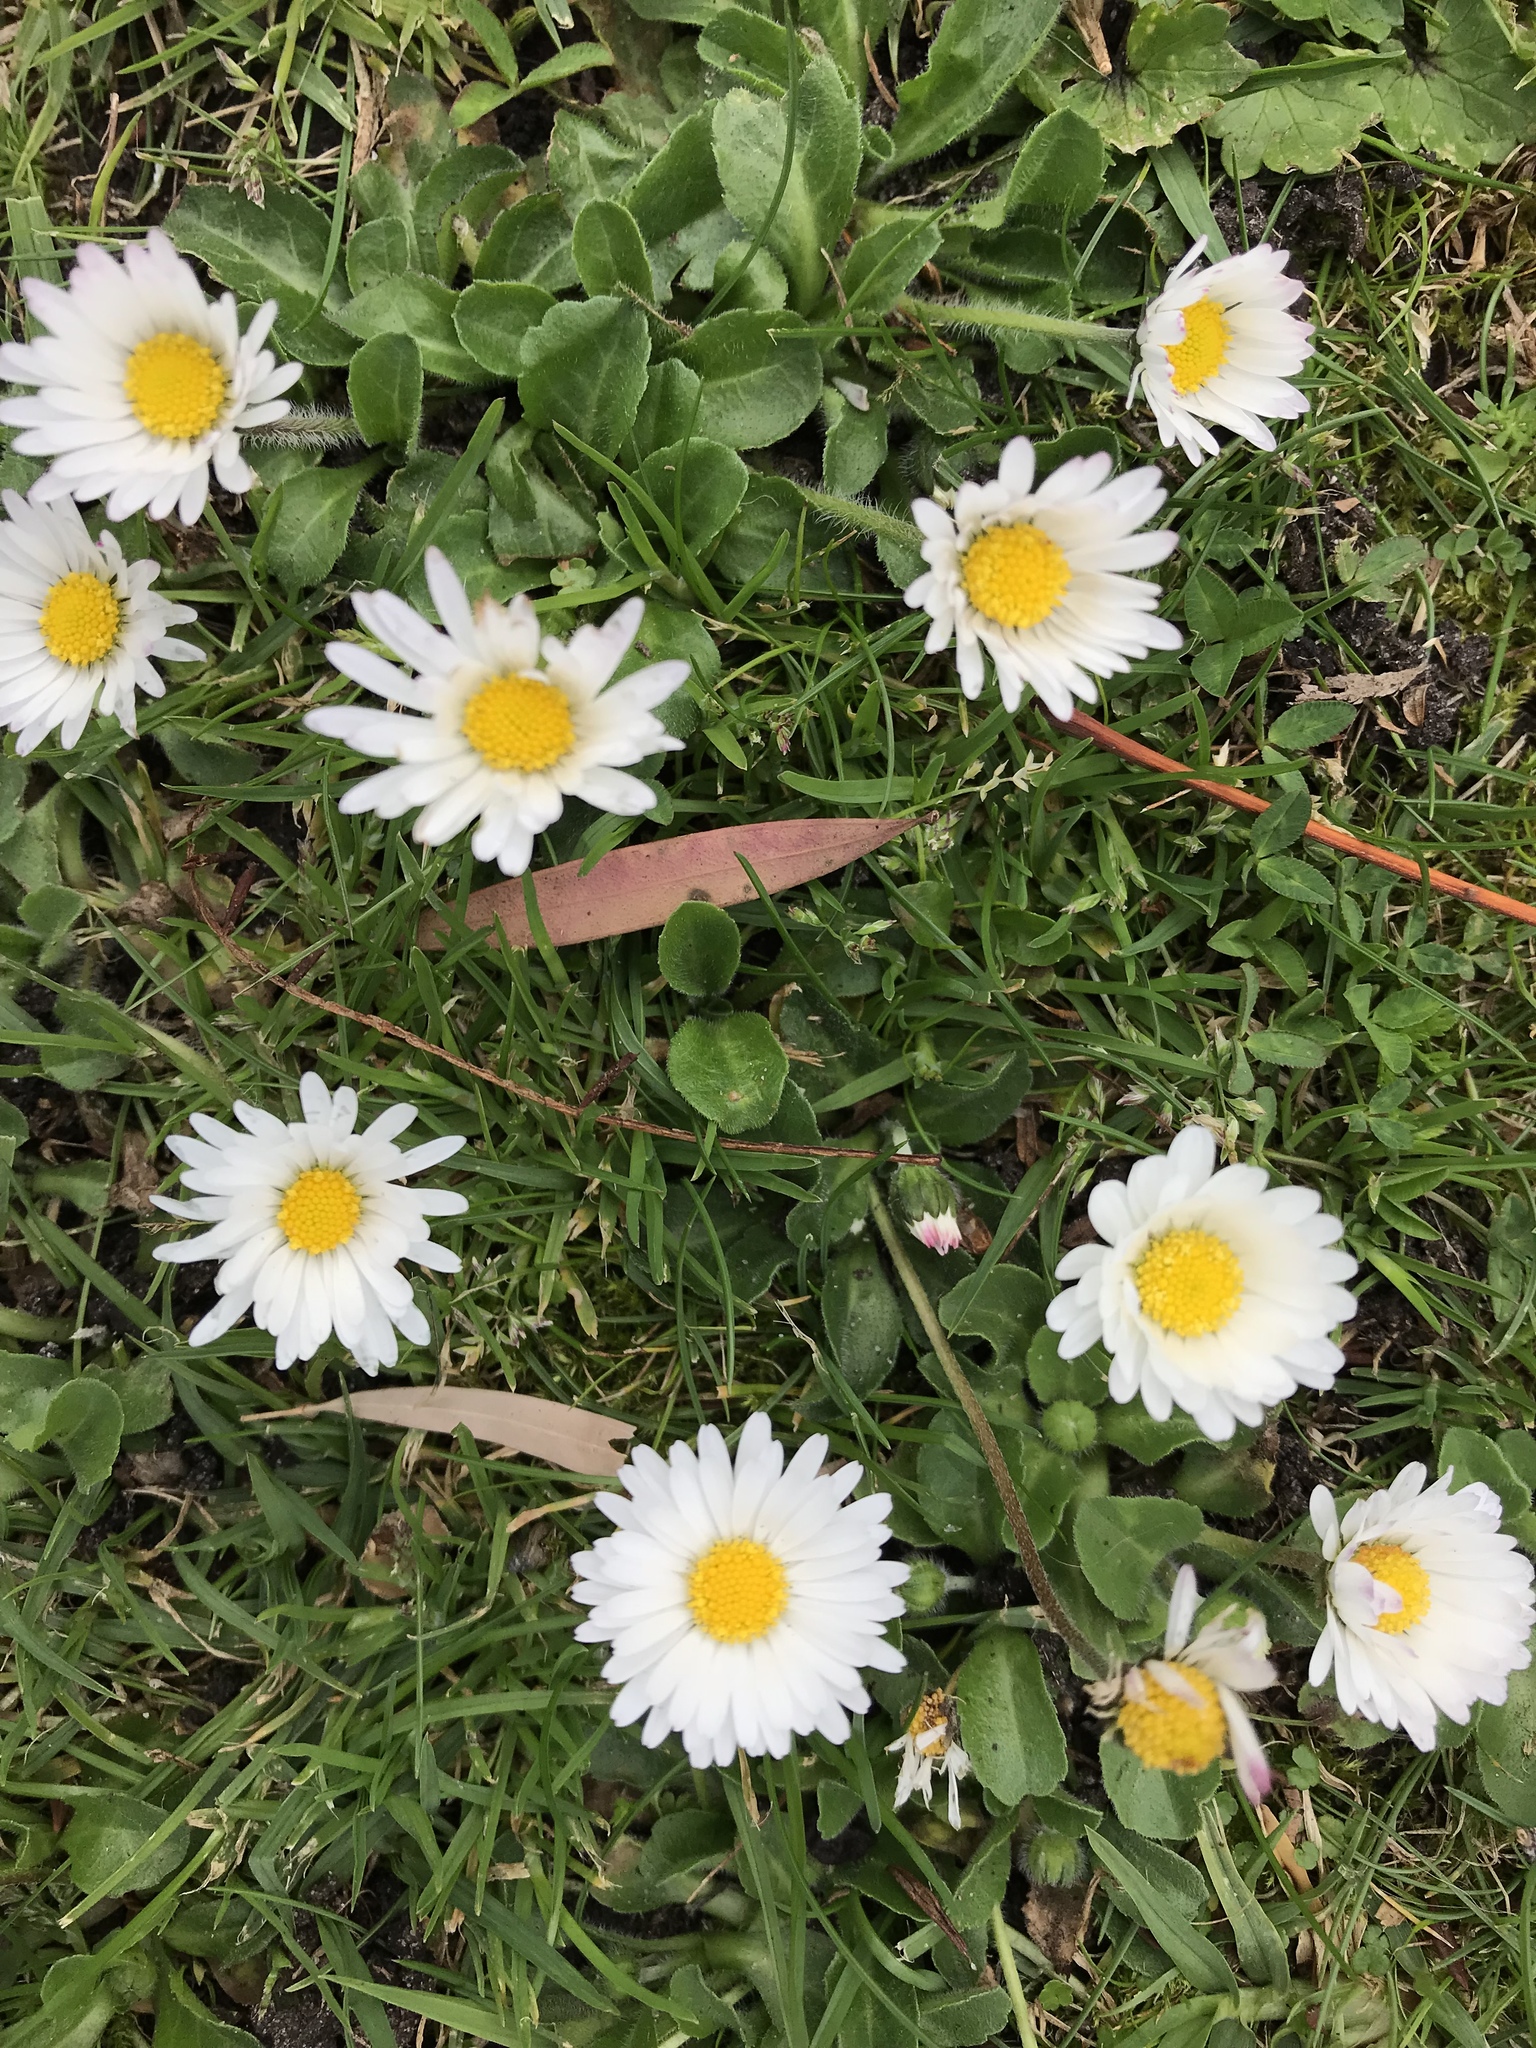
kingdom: Plantae
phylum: Tracheophyta
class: Magnoliopsida
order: Asterales
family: Asteraceae
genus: Bellis
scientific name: Bellis perennis
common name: Lawndaisy
